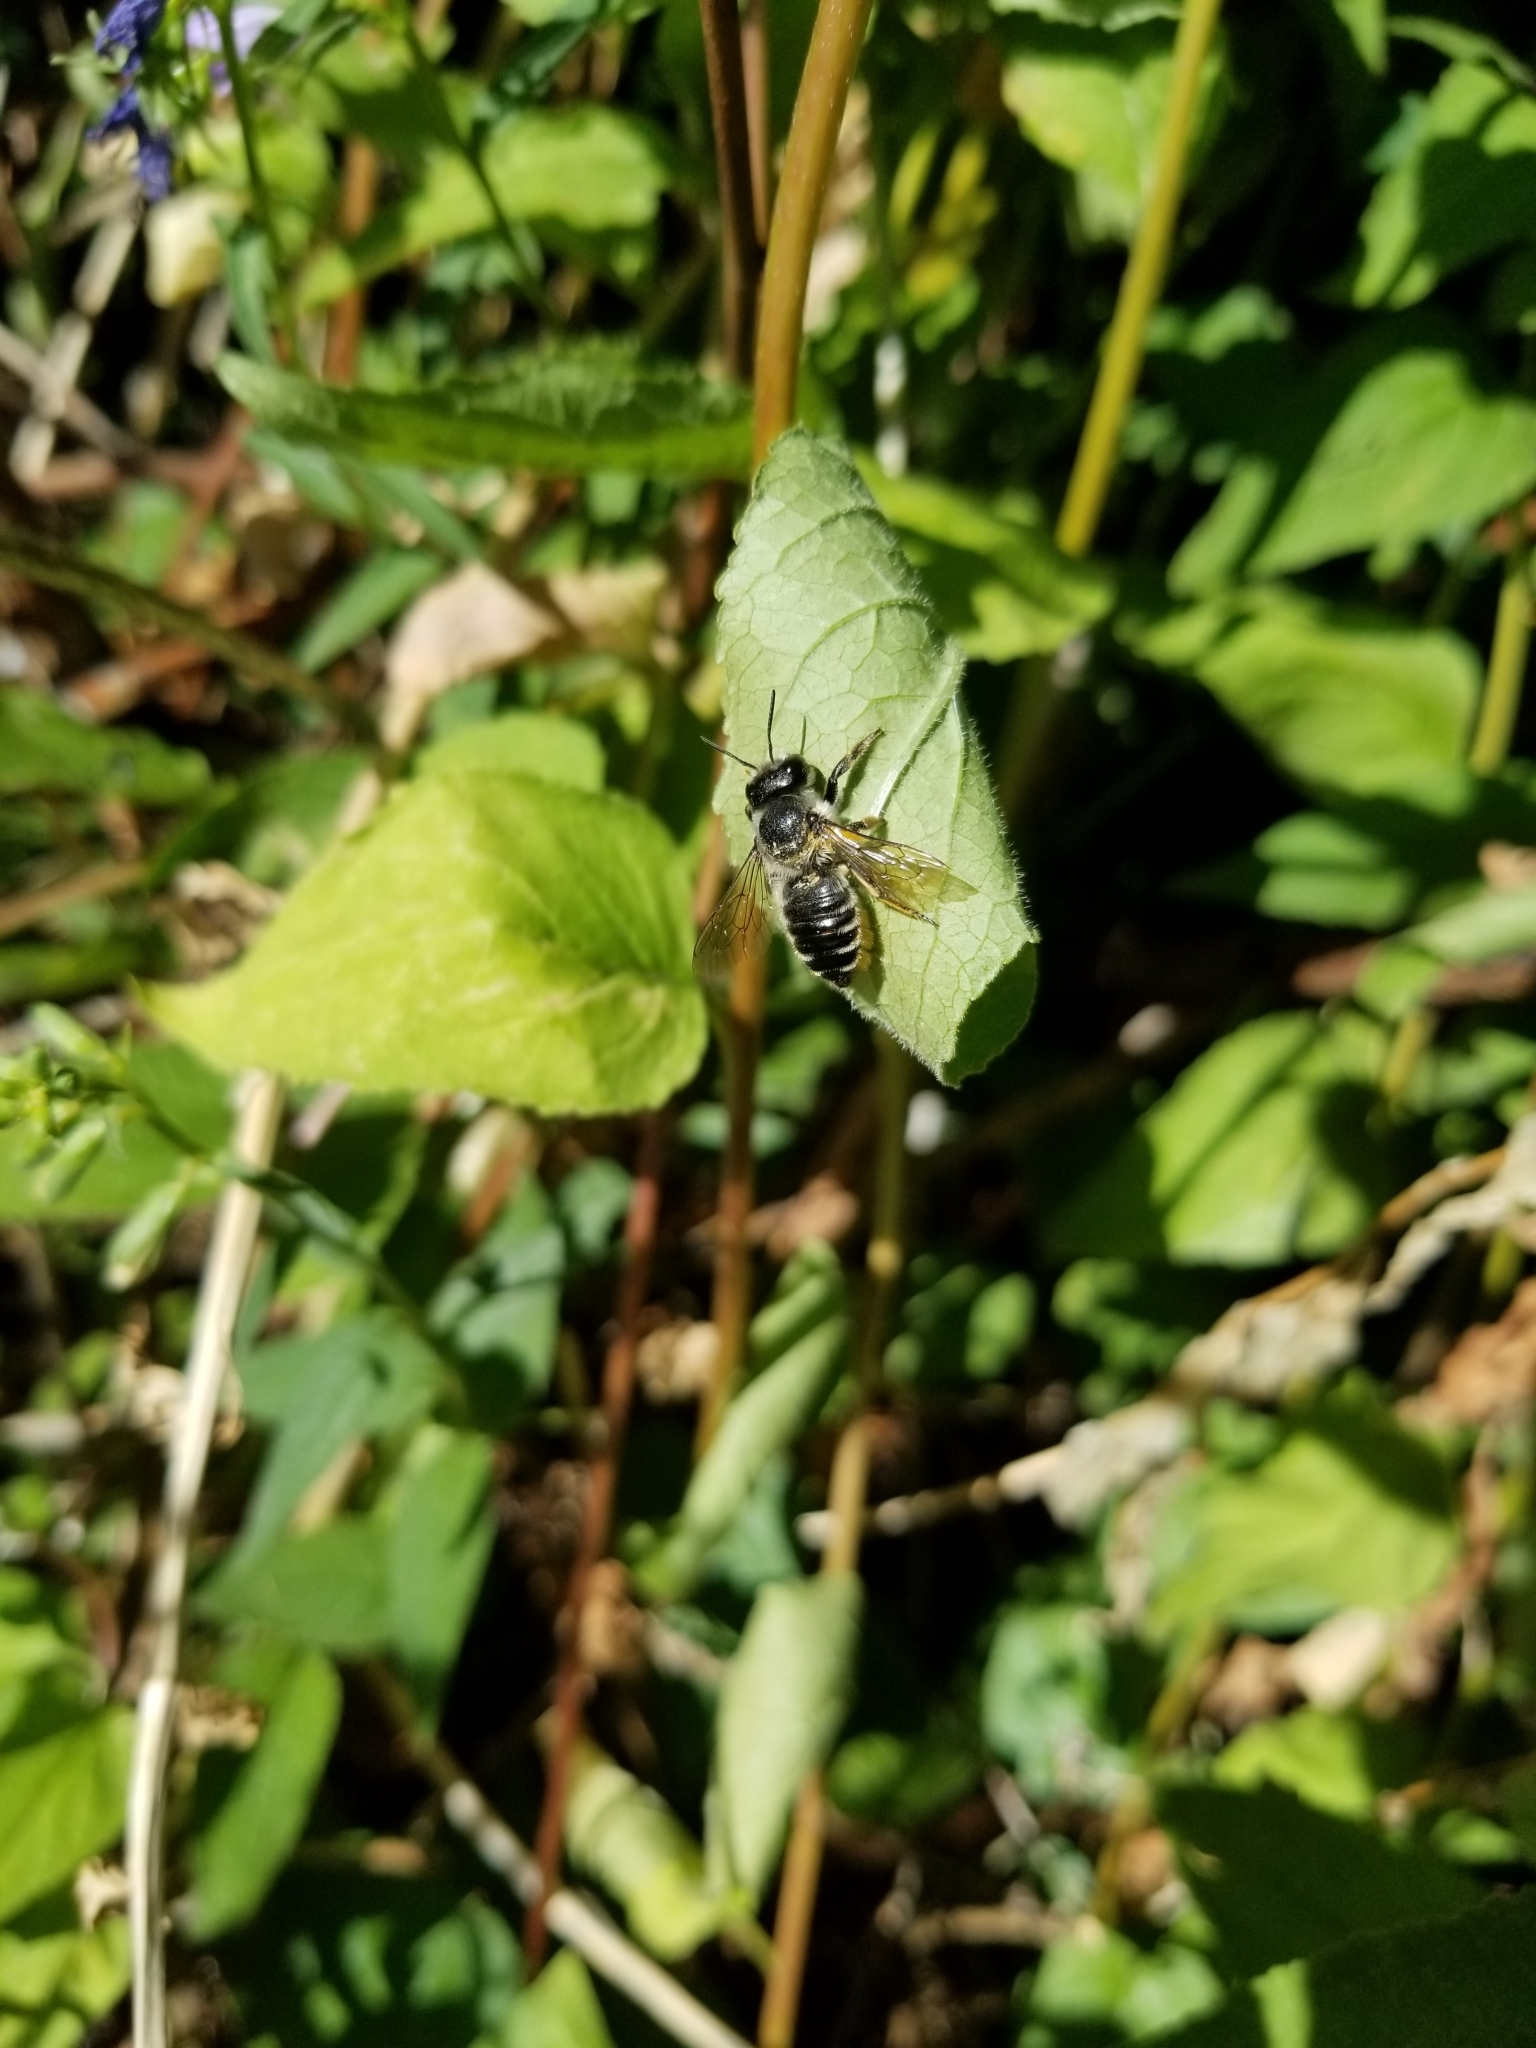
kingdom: Animalia
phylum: Arthropoda
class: Insecta
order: Hymenoptera
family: Megachilidae
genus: Megachile
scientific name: Megachile inermis
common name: Unarmed leafcutter bee
